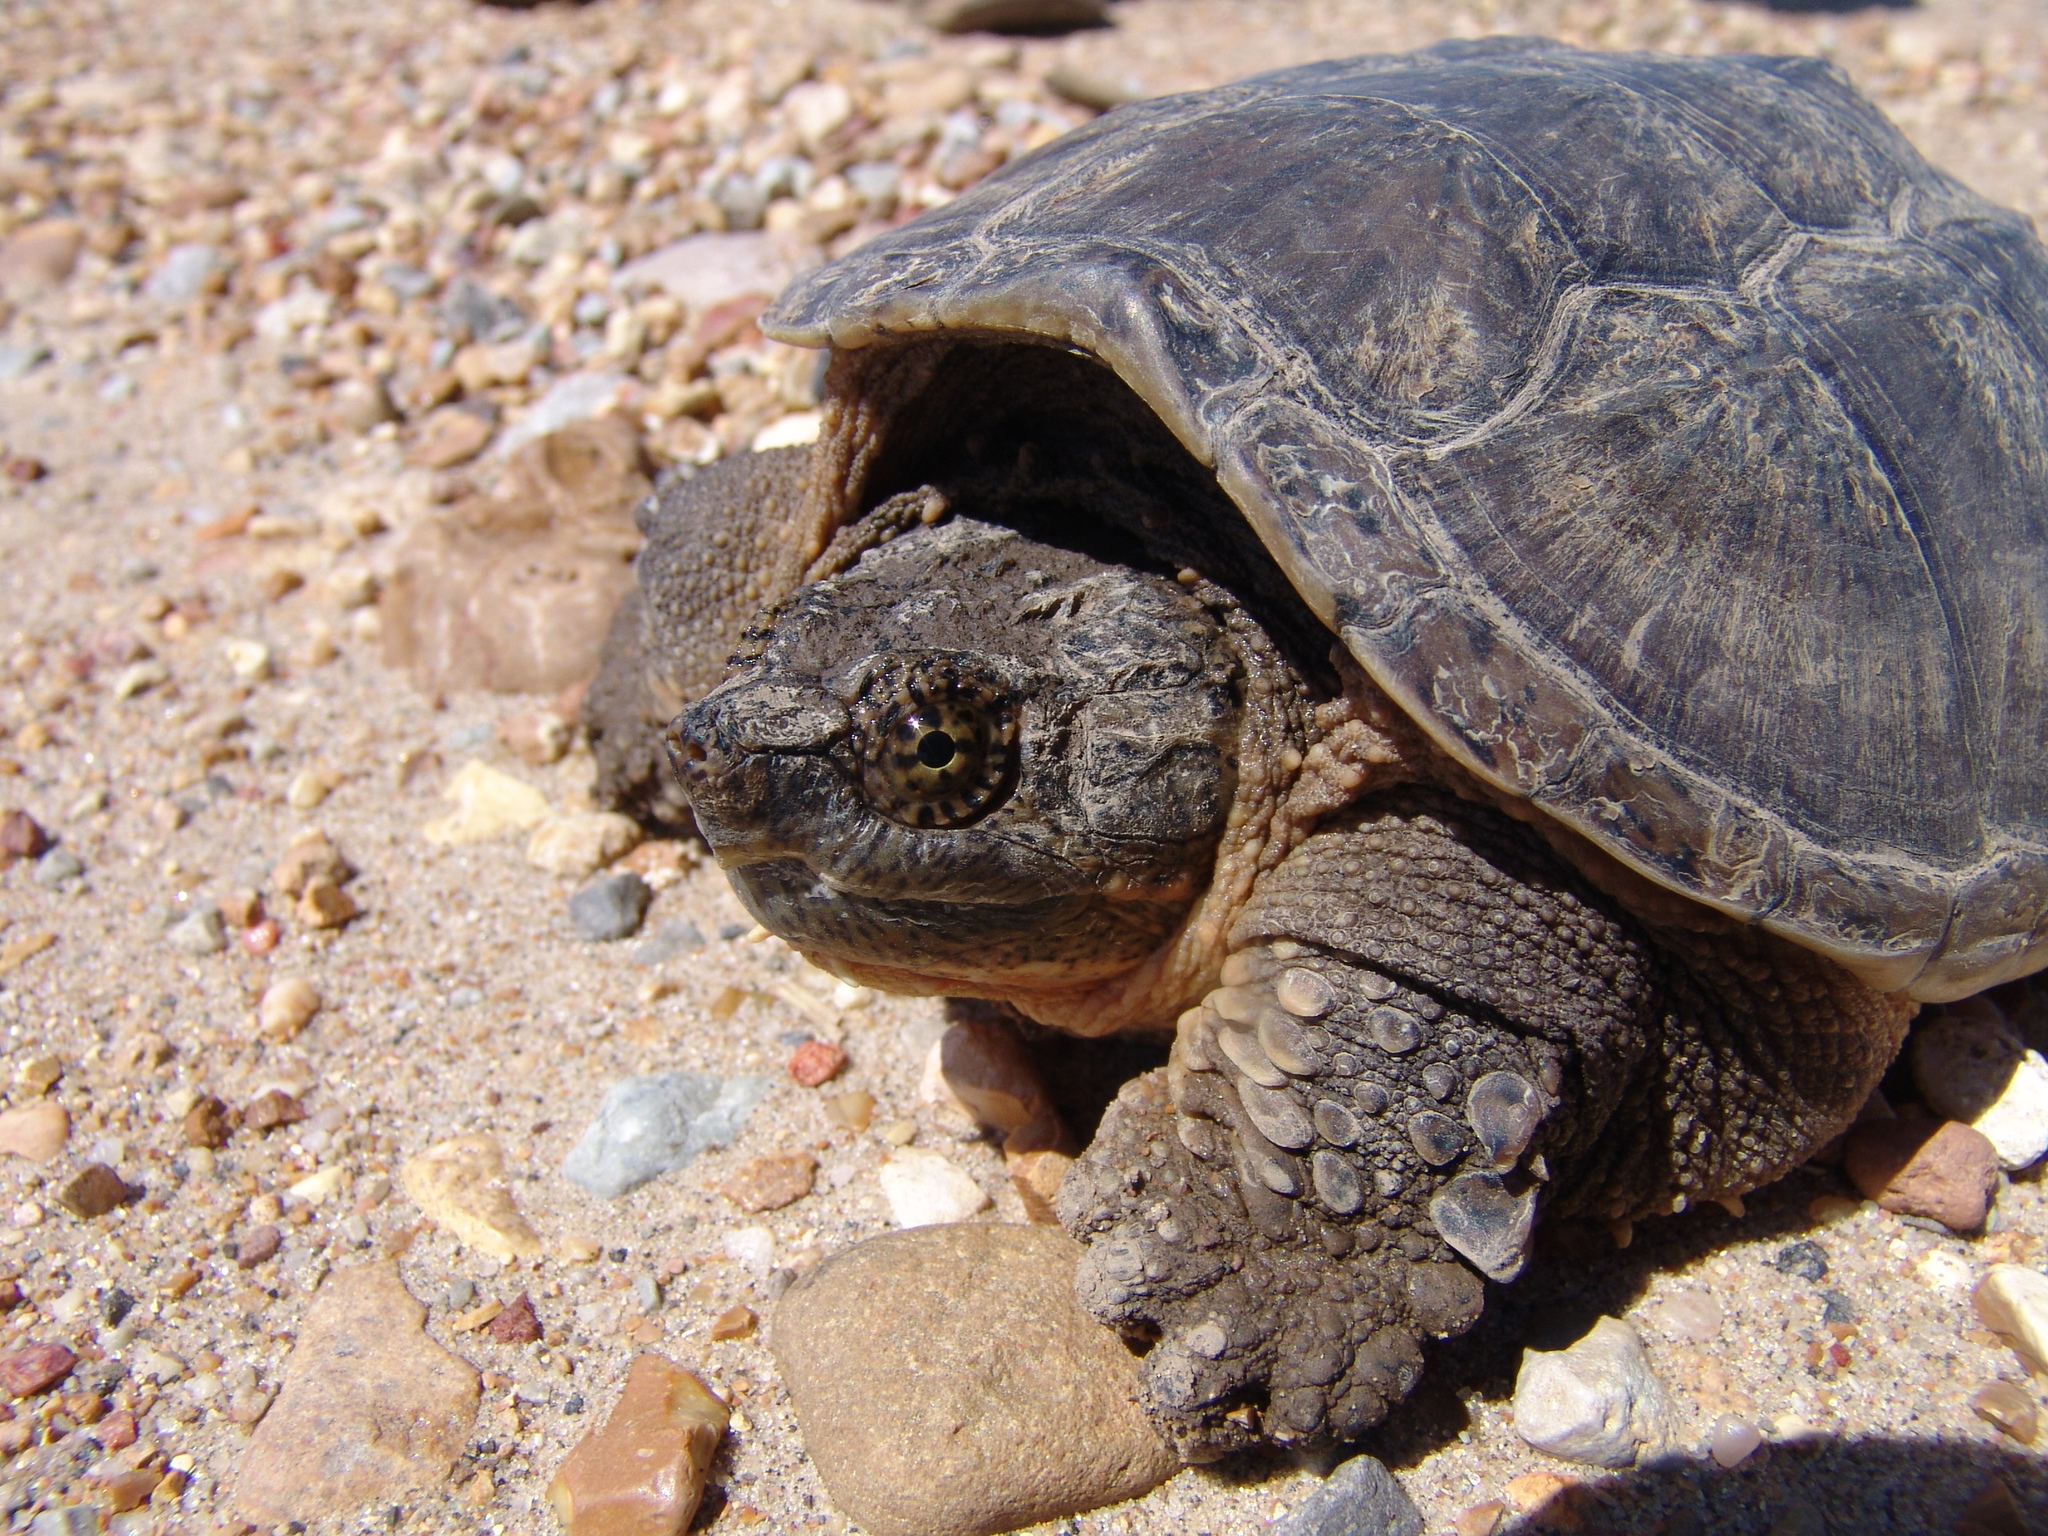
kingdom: Animalia
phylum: Chordata
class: Testudines
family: Chelydridae
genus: Chelydra
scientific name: Chelydra serpentina
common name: Common snapping turtle
